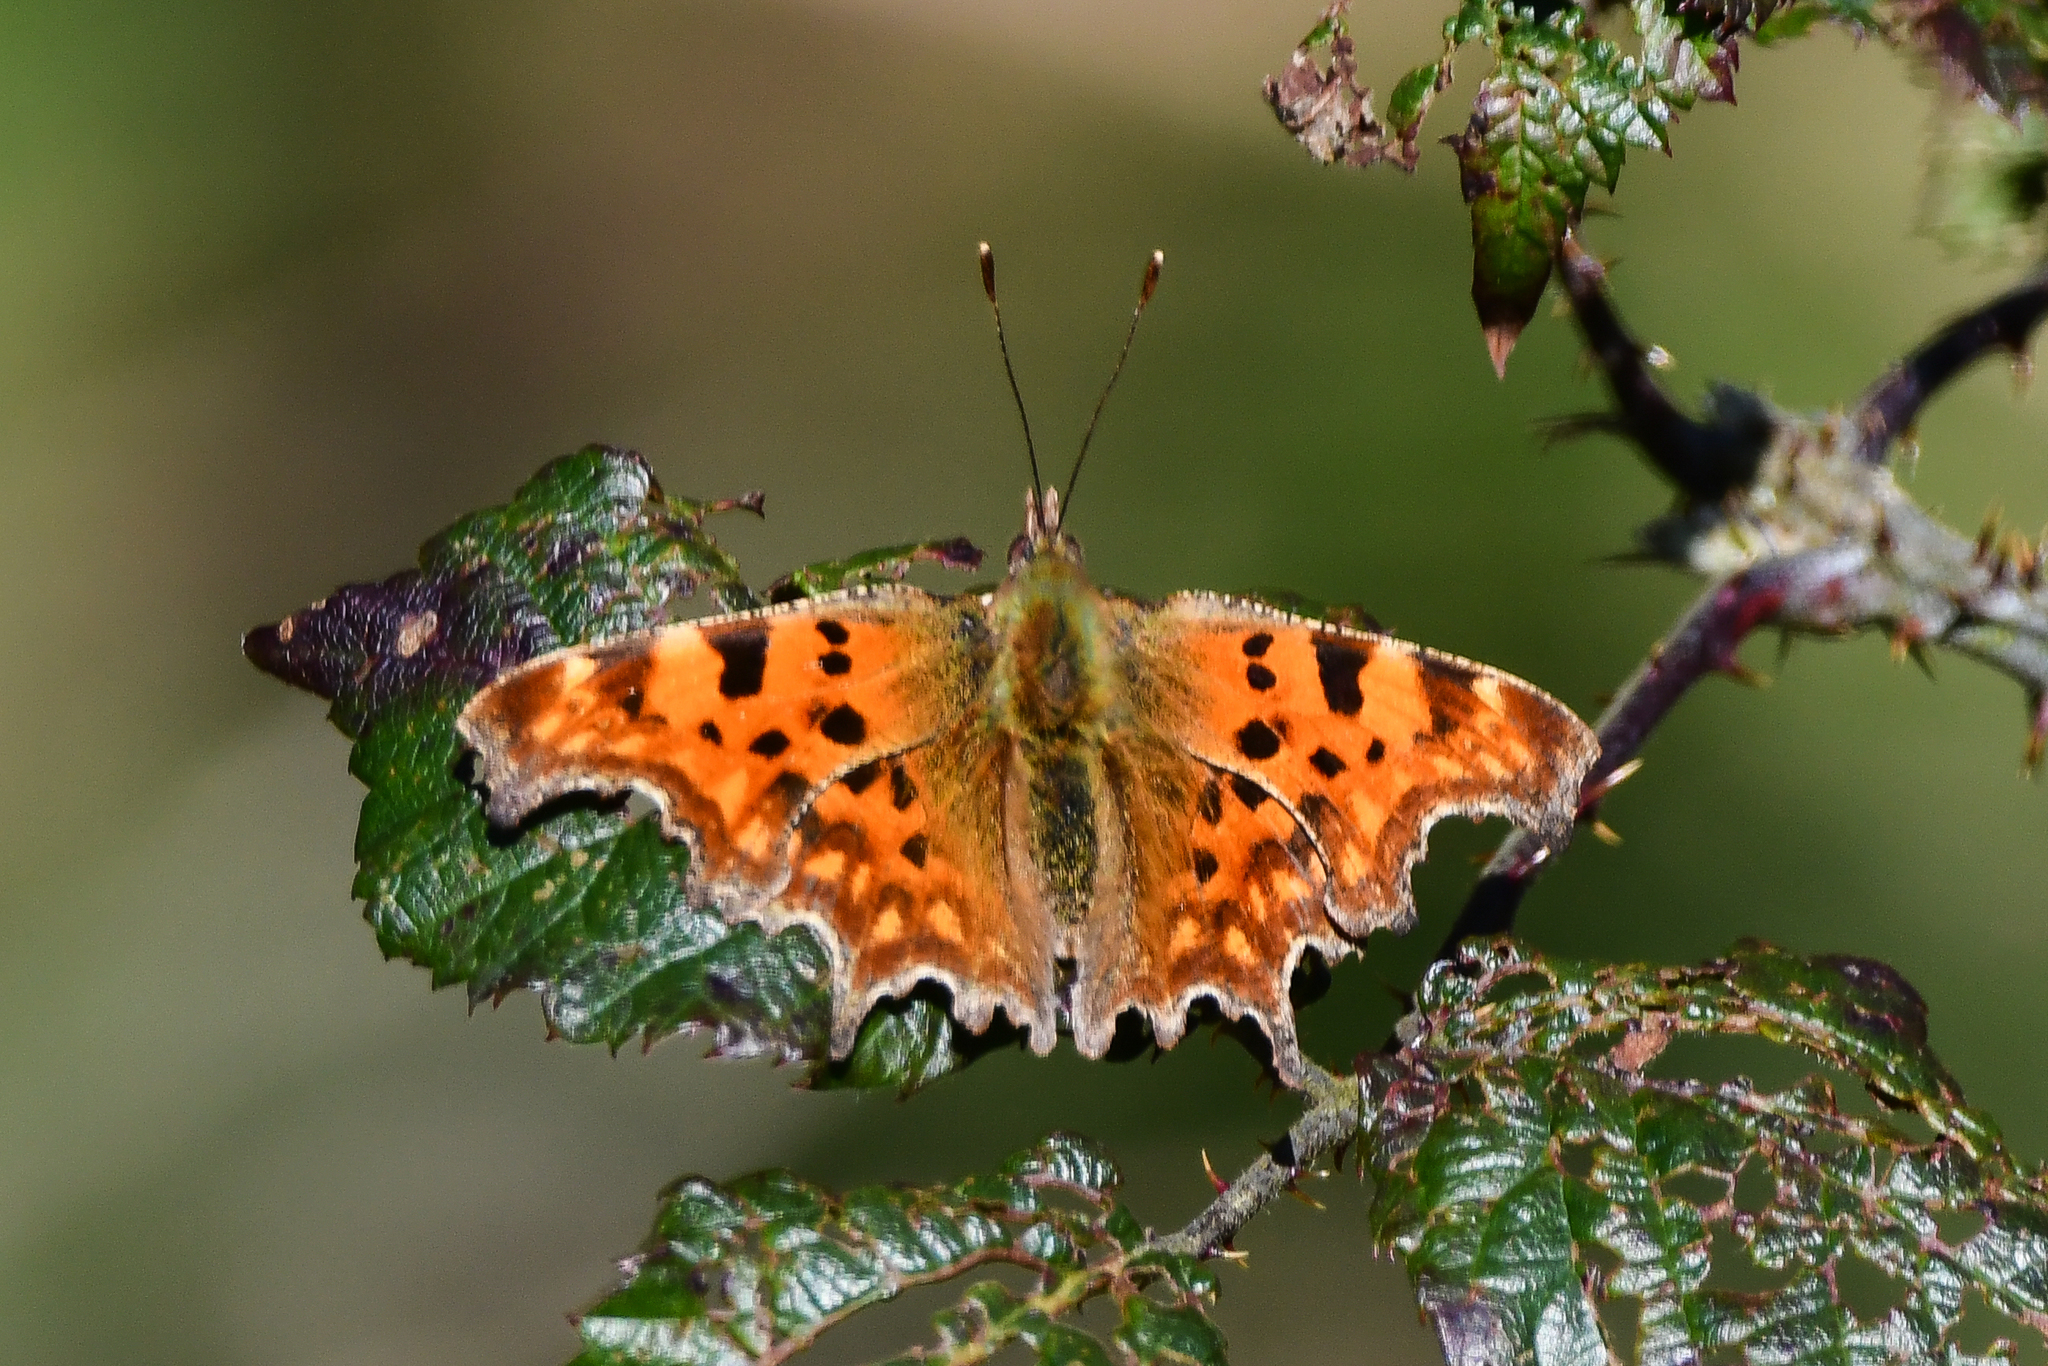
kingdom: Animalia
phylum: Arthropoda
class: Insecta
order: Lepidoptera
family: Nymphalidae
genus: Polygonia
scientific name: Polygonia c-album
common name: Comma
